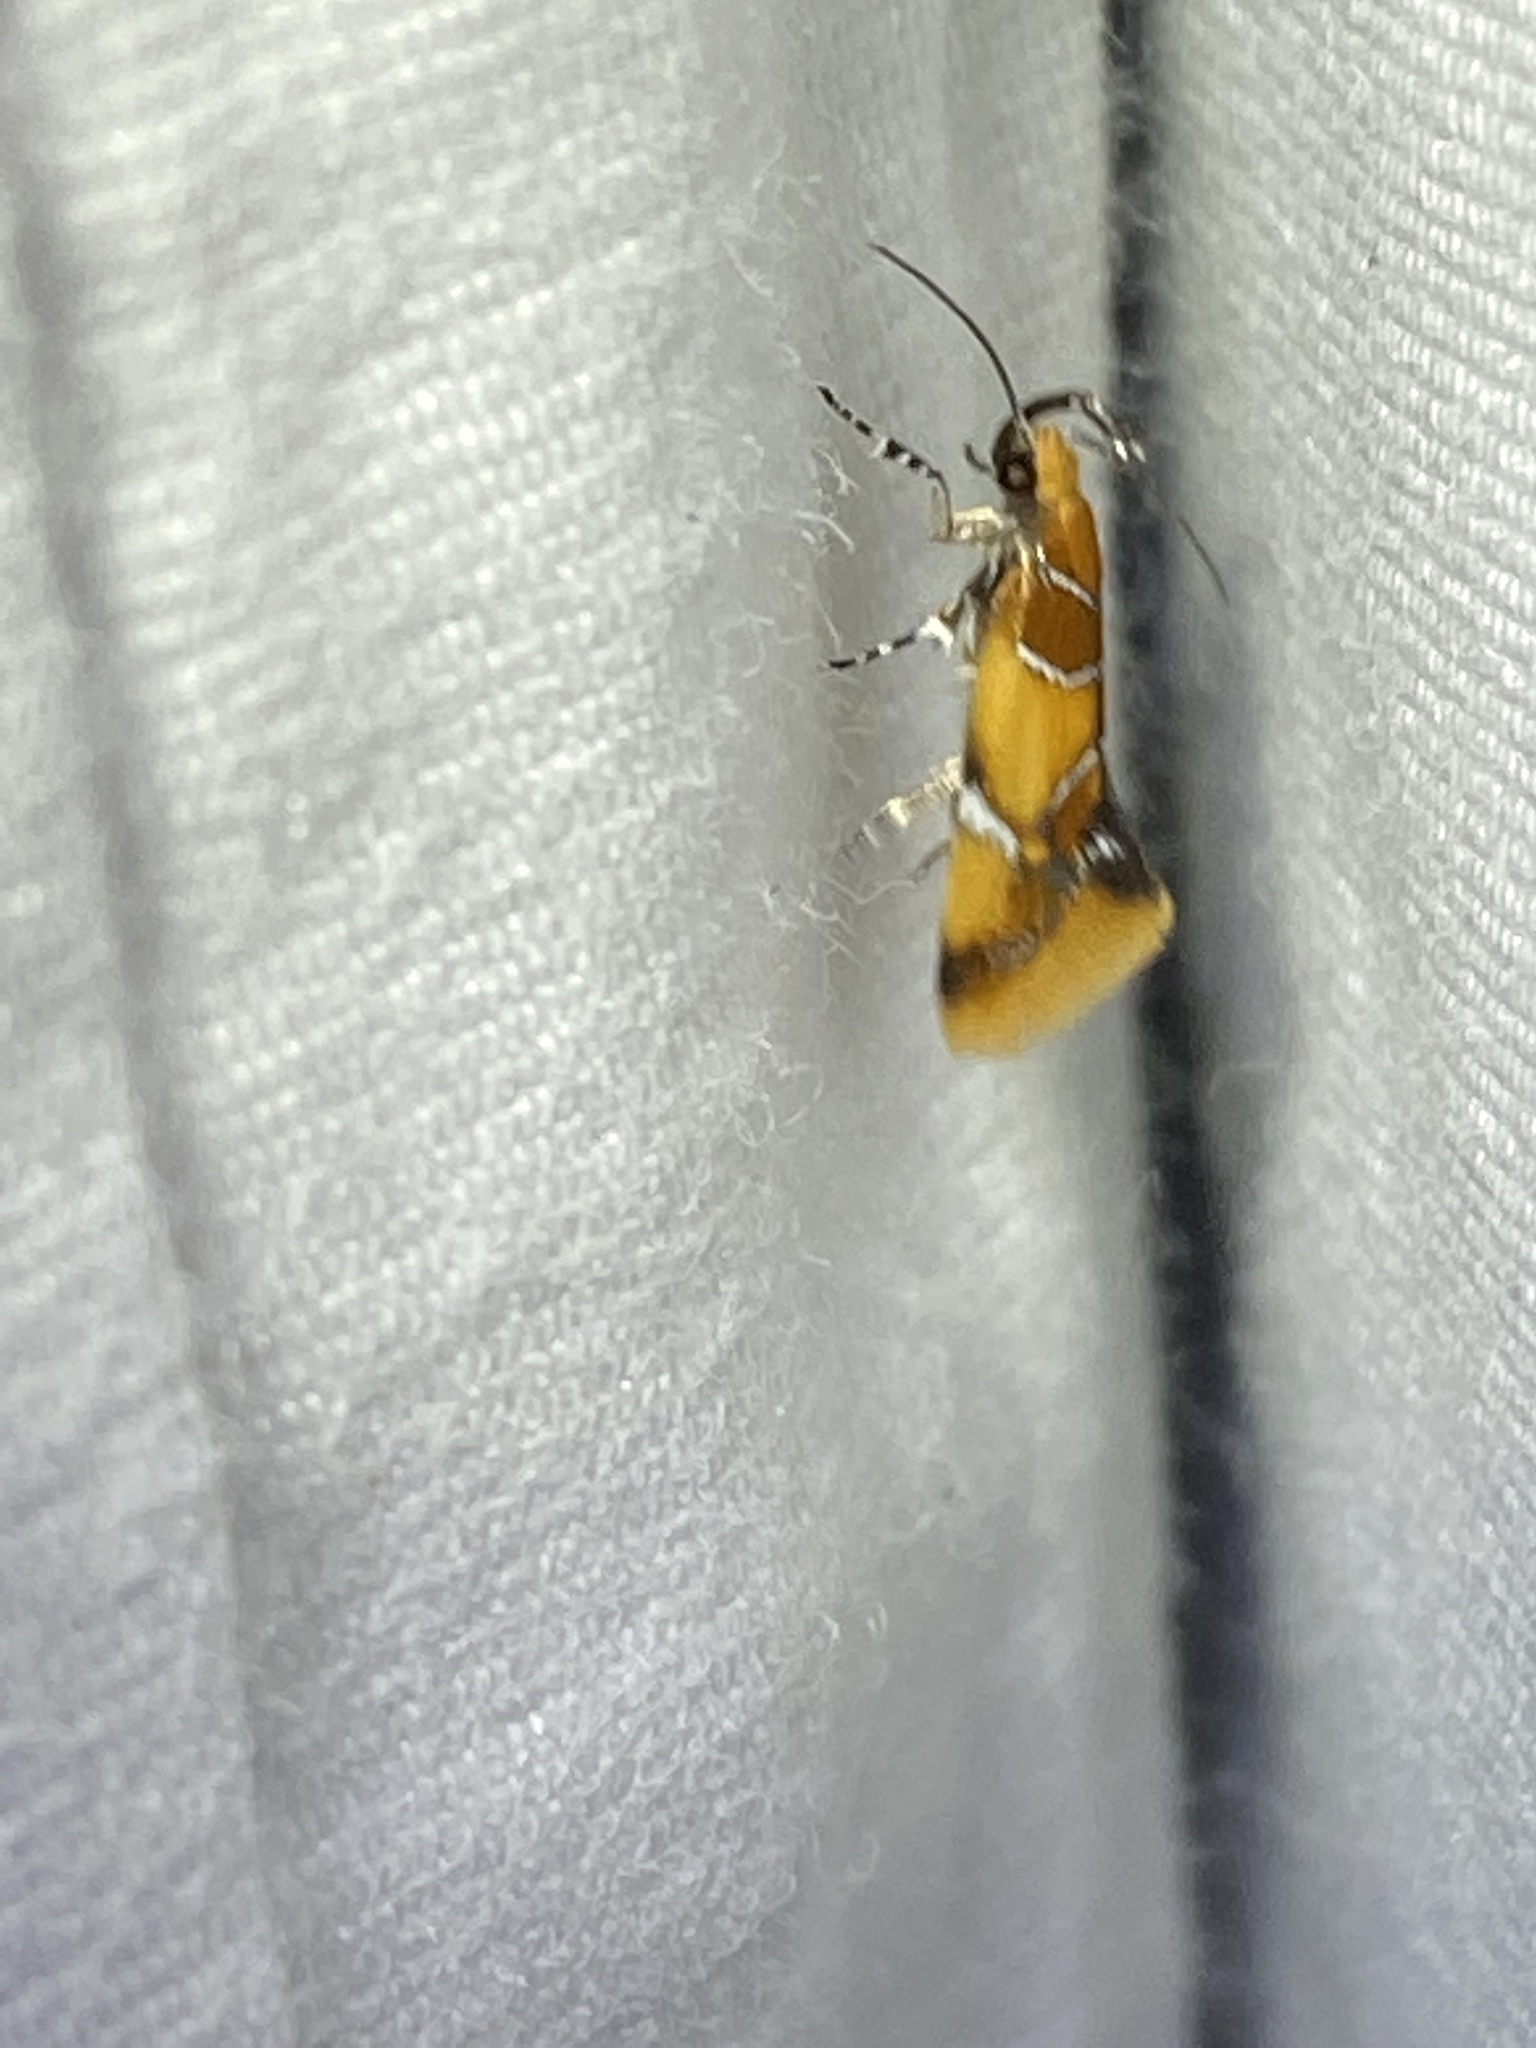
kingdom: Animalia
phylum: Arthropoda
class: Insecta
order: Lepidoptera
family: Oecophoridae
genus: Callima
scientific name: Callima argenticinctella
